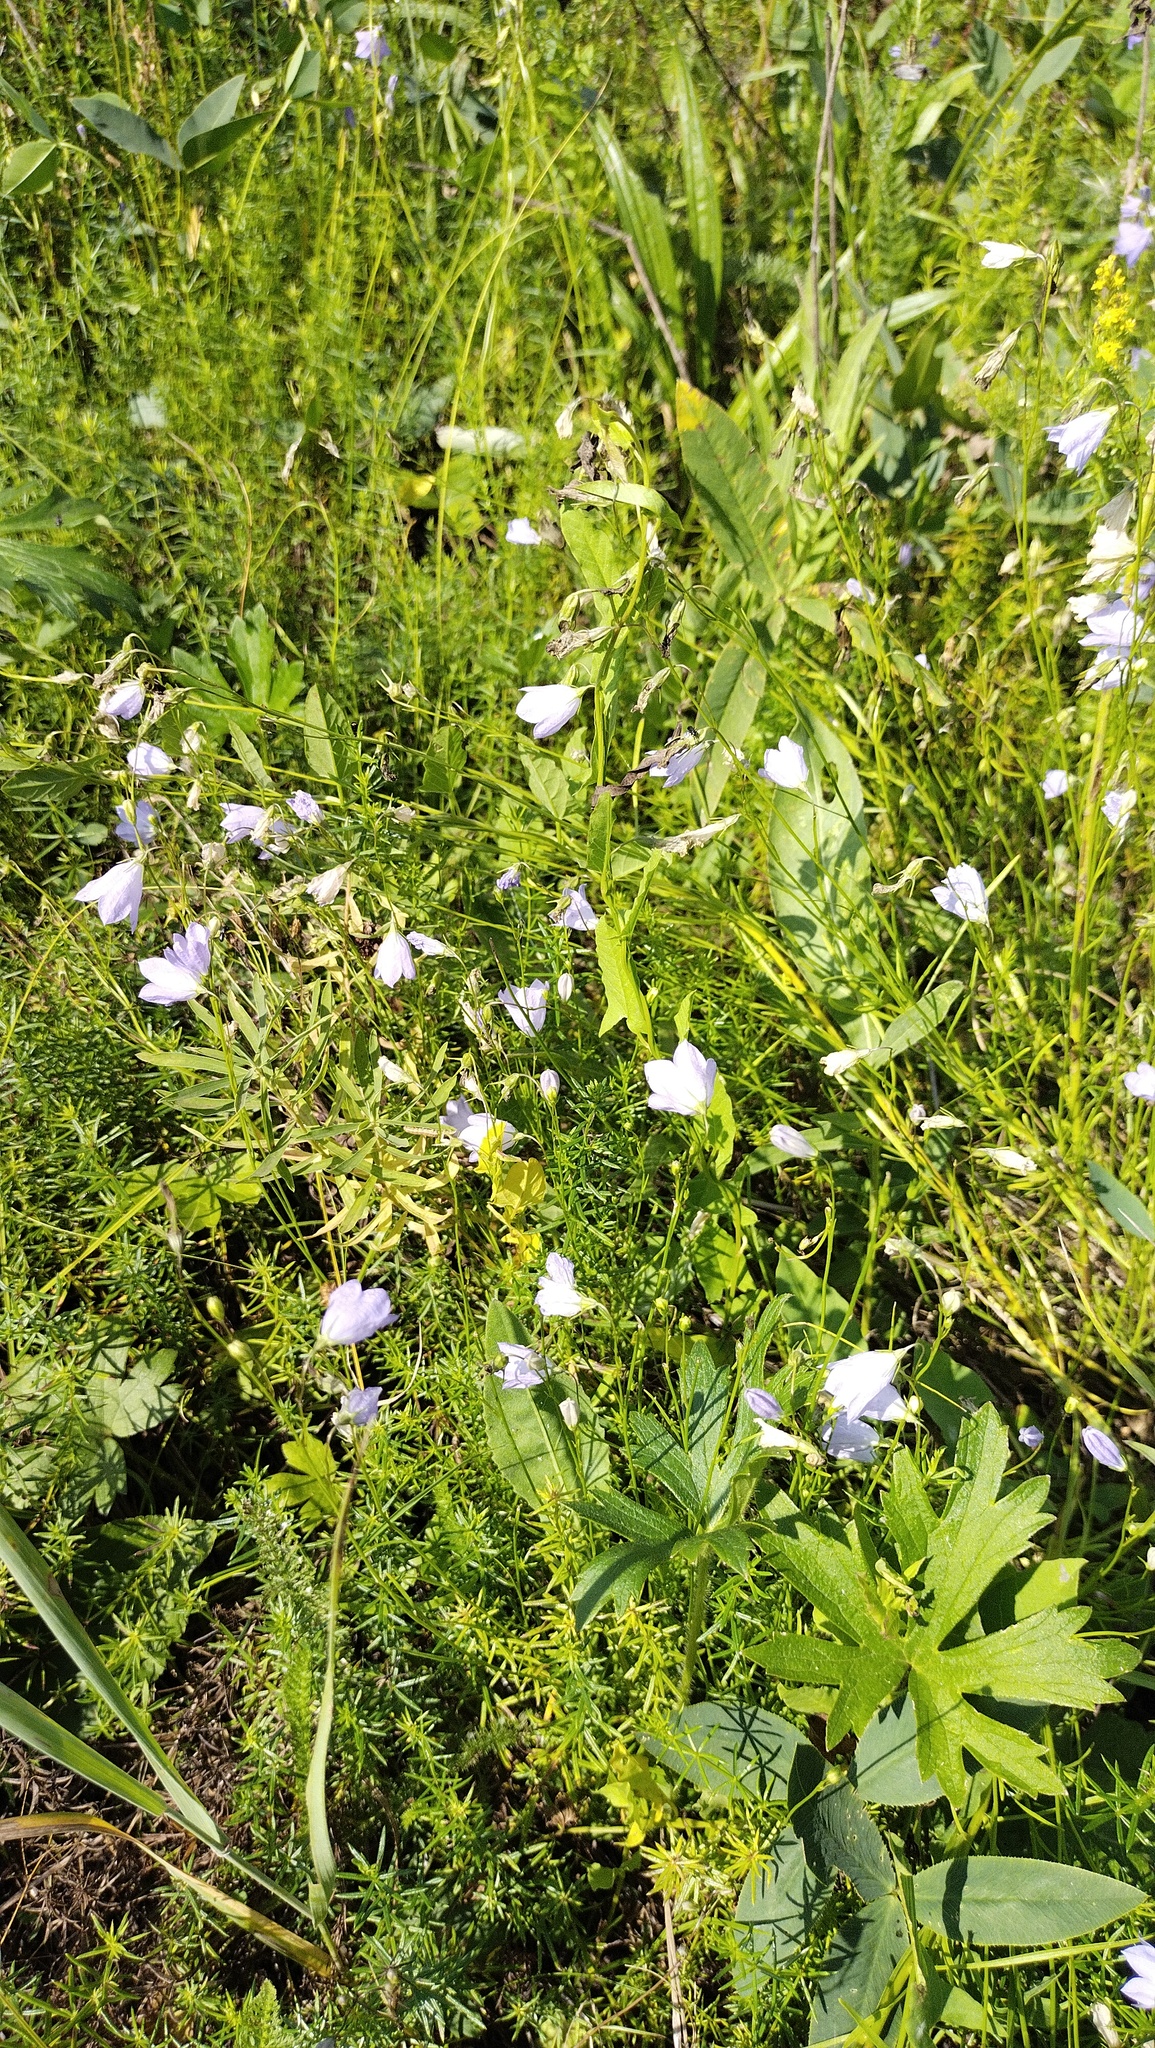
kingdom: Plantae
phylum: Tracheophyta
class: Magnoliopsida
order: Asterales
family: Campanulaceae
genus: Campanula
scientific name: Campanula rotundifolia
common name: Harebell
